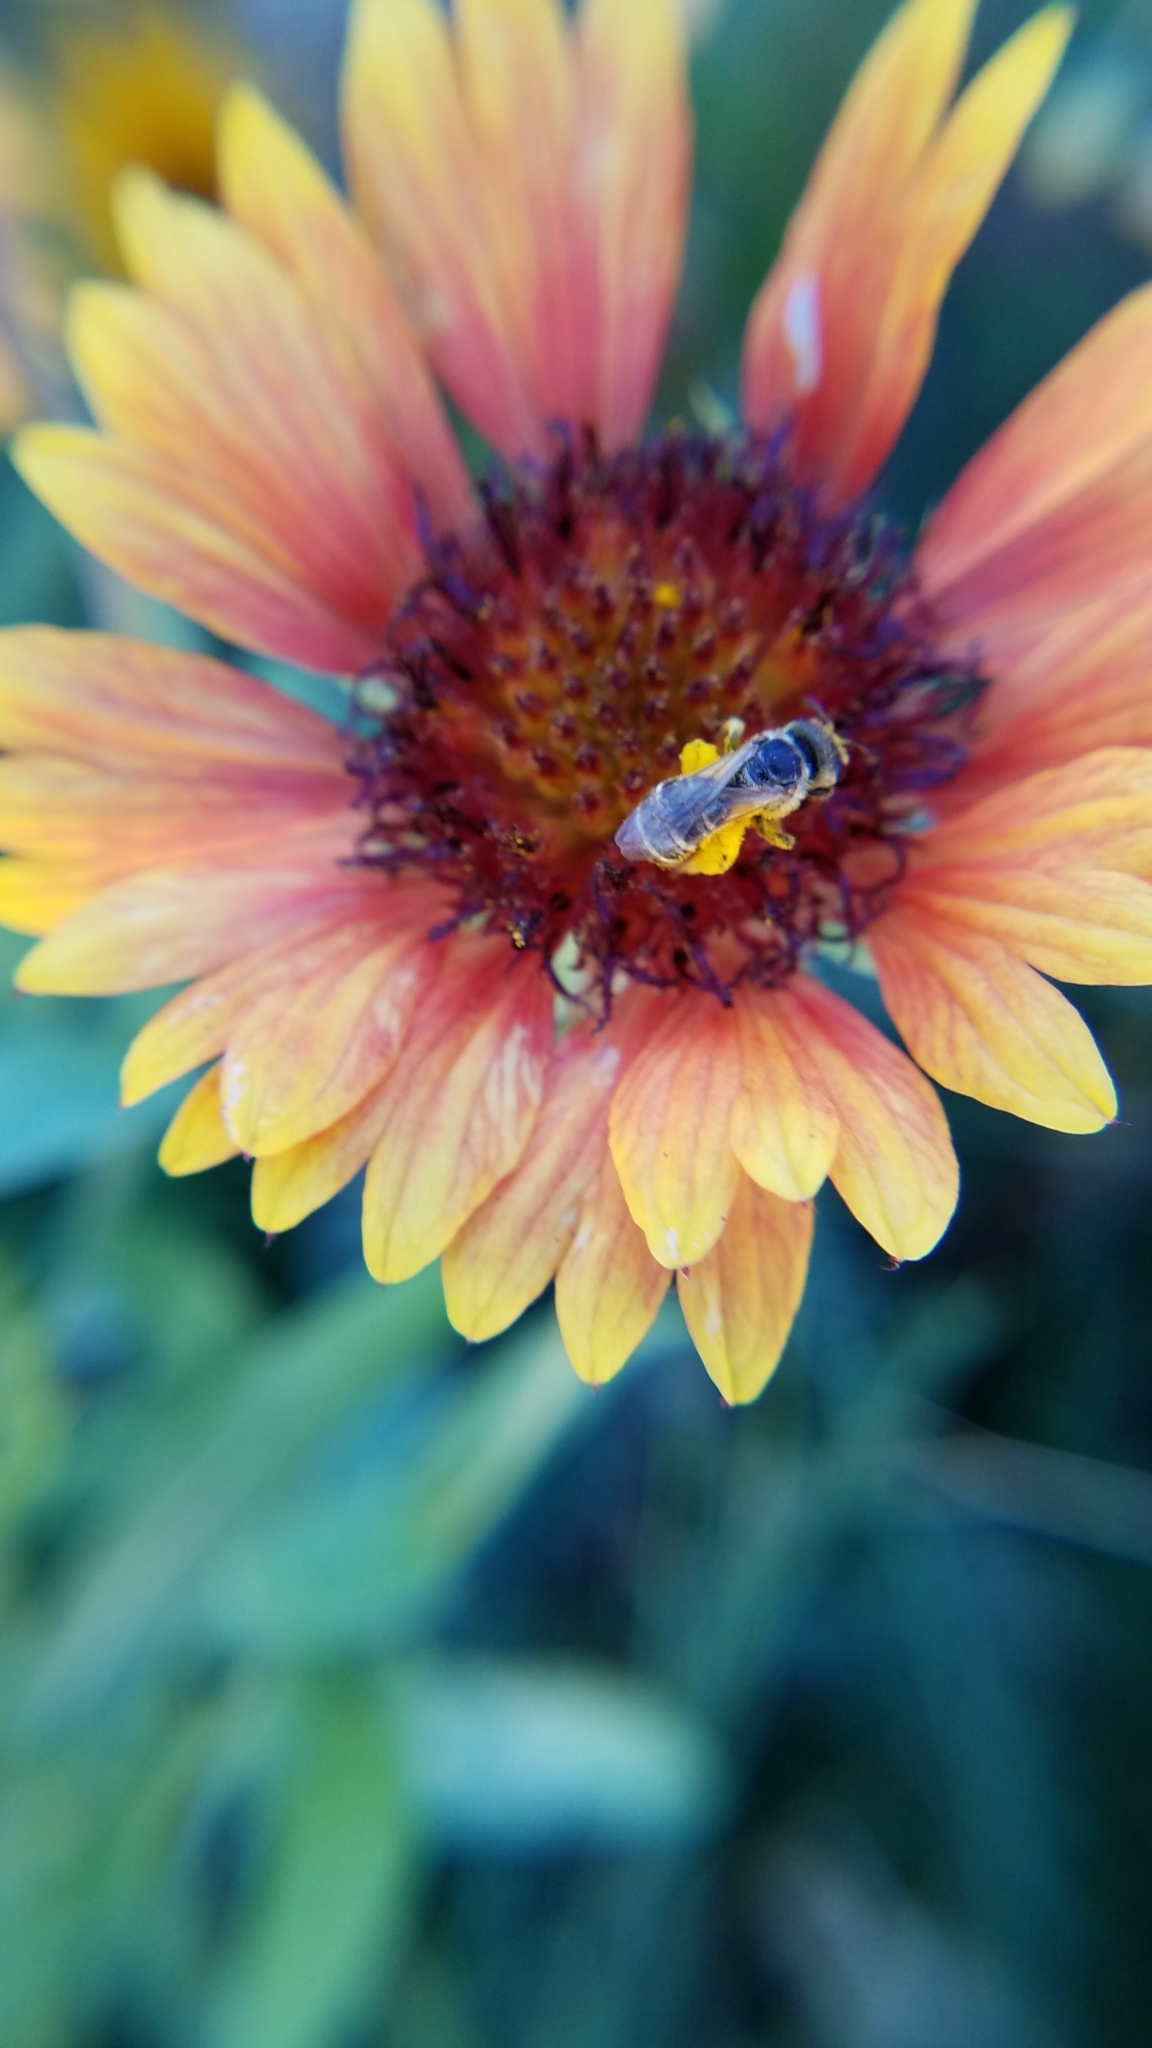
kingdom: Animalia
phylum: Arthropoda
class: Insecta
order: Hymenoptera
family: Halictidae
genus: Halictus
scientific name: Halictus ligatus
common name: Ligated furrow bee
